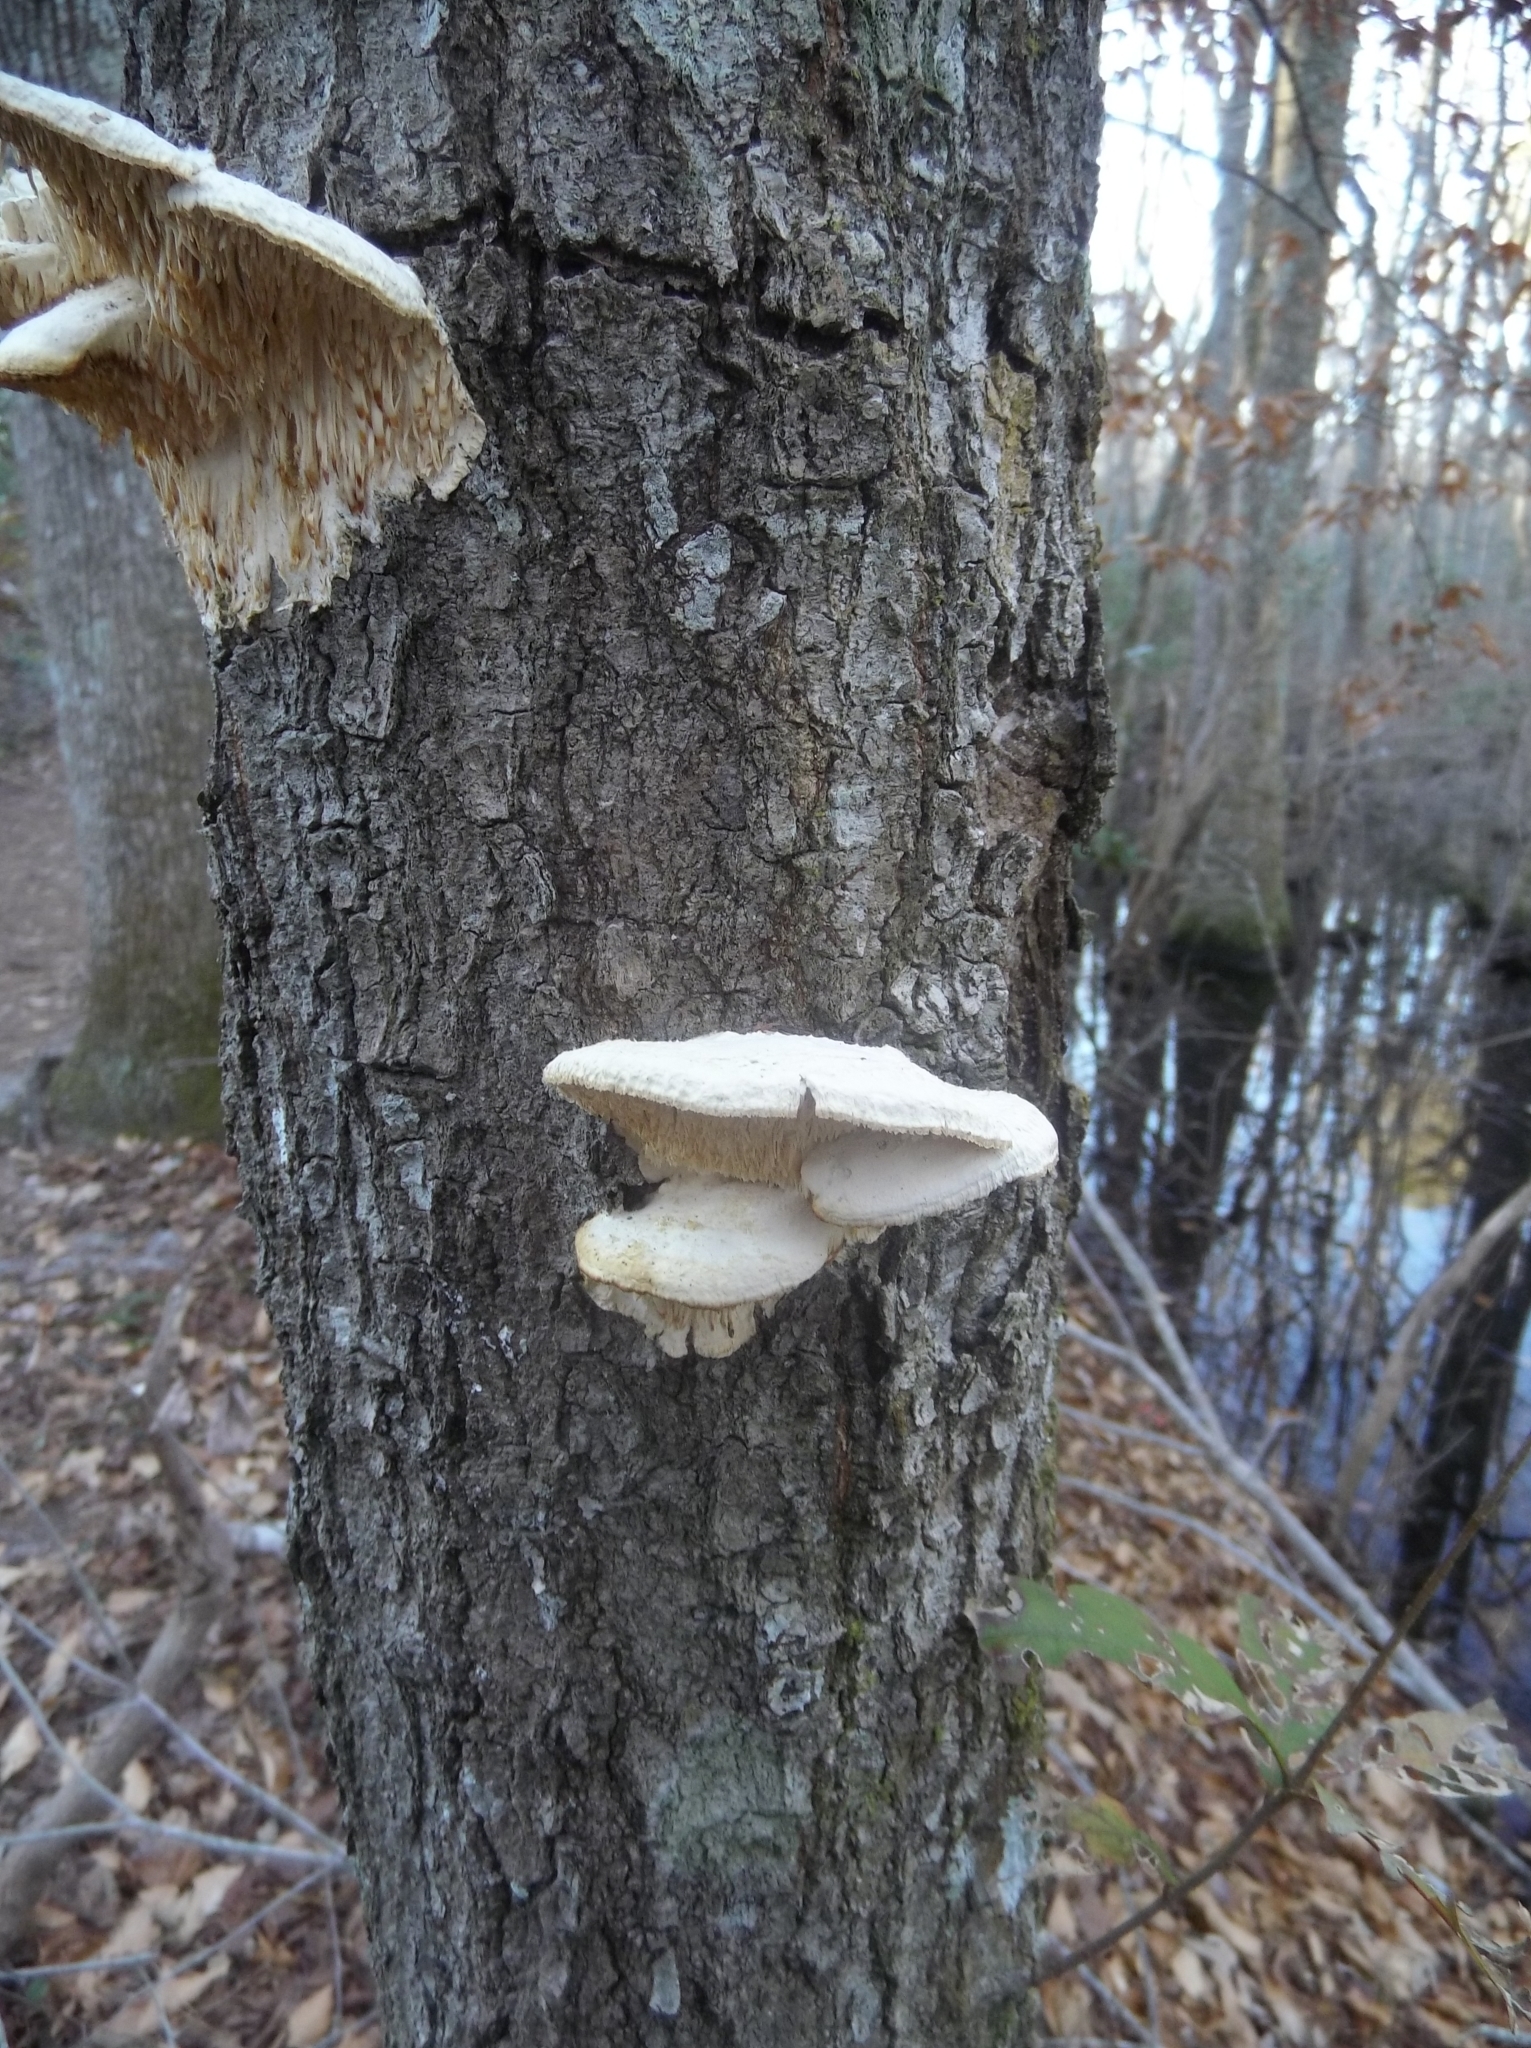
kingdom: Fungi
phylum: Basidiomycota
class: Agaricomycetes
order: Polyporales
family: Meruliaceae
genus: Irpiciporus
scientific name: Irpiciporus pachyodon
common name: Marshmallow polypore
